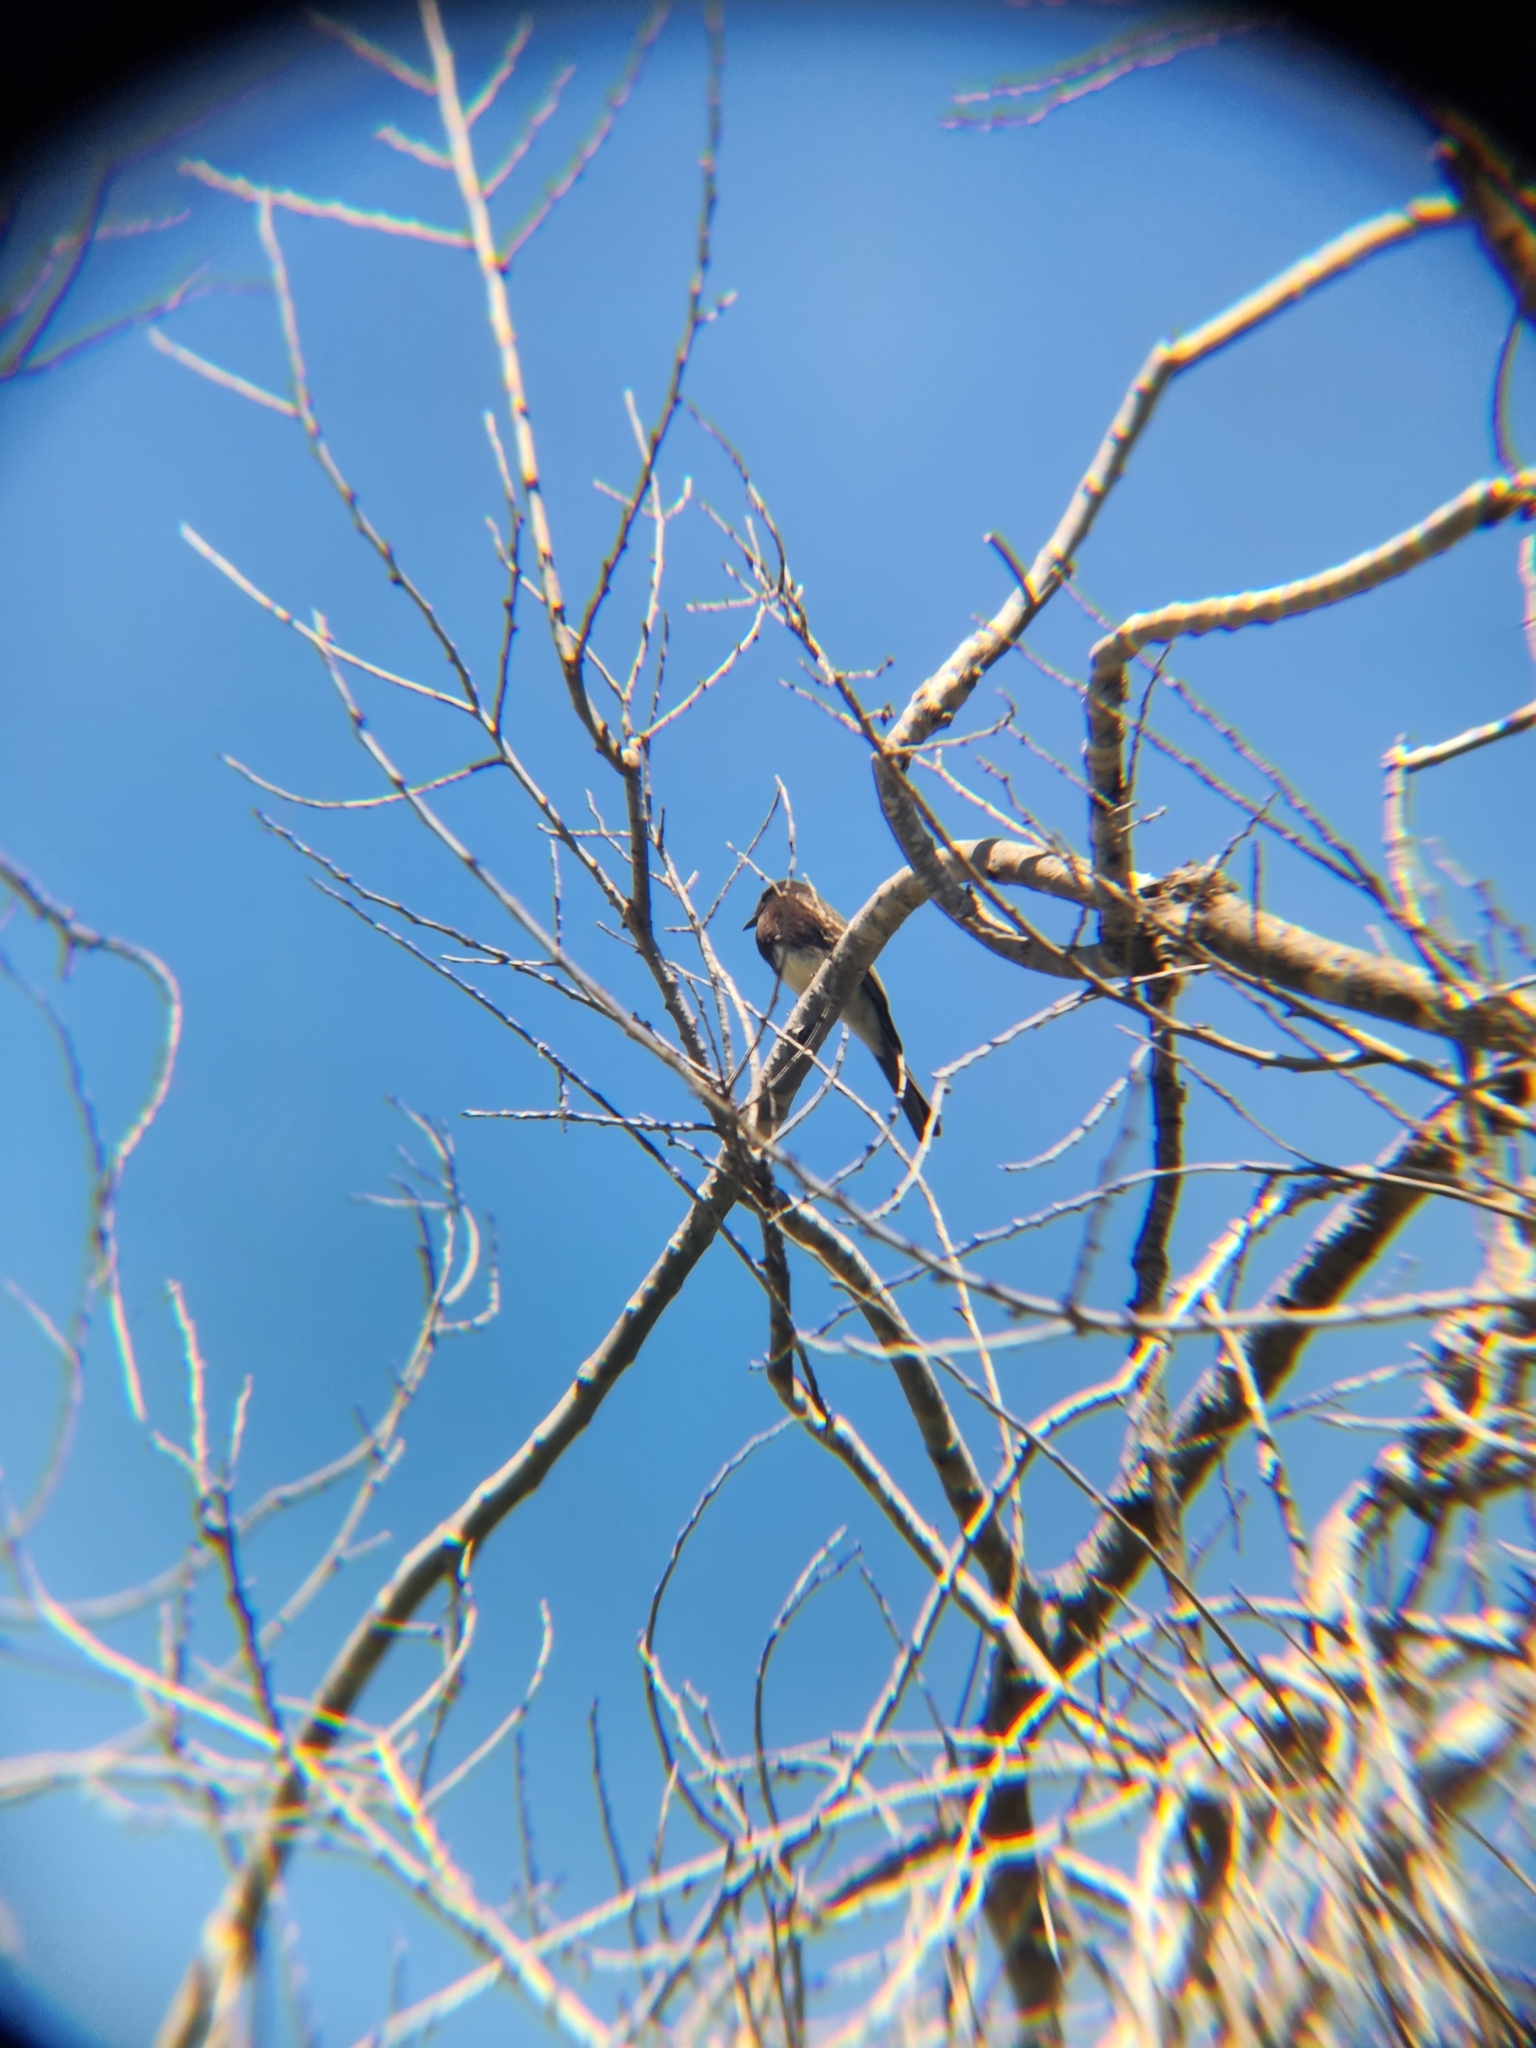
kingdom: Animalia
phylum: Chordata
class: Aves
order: Passeriformes
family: Tyrannidae
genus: Sayornis
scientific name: Sayornis nigricans
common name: Black phoebe
